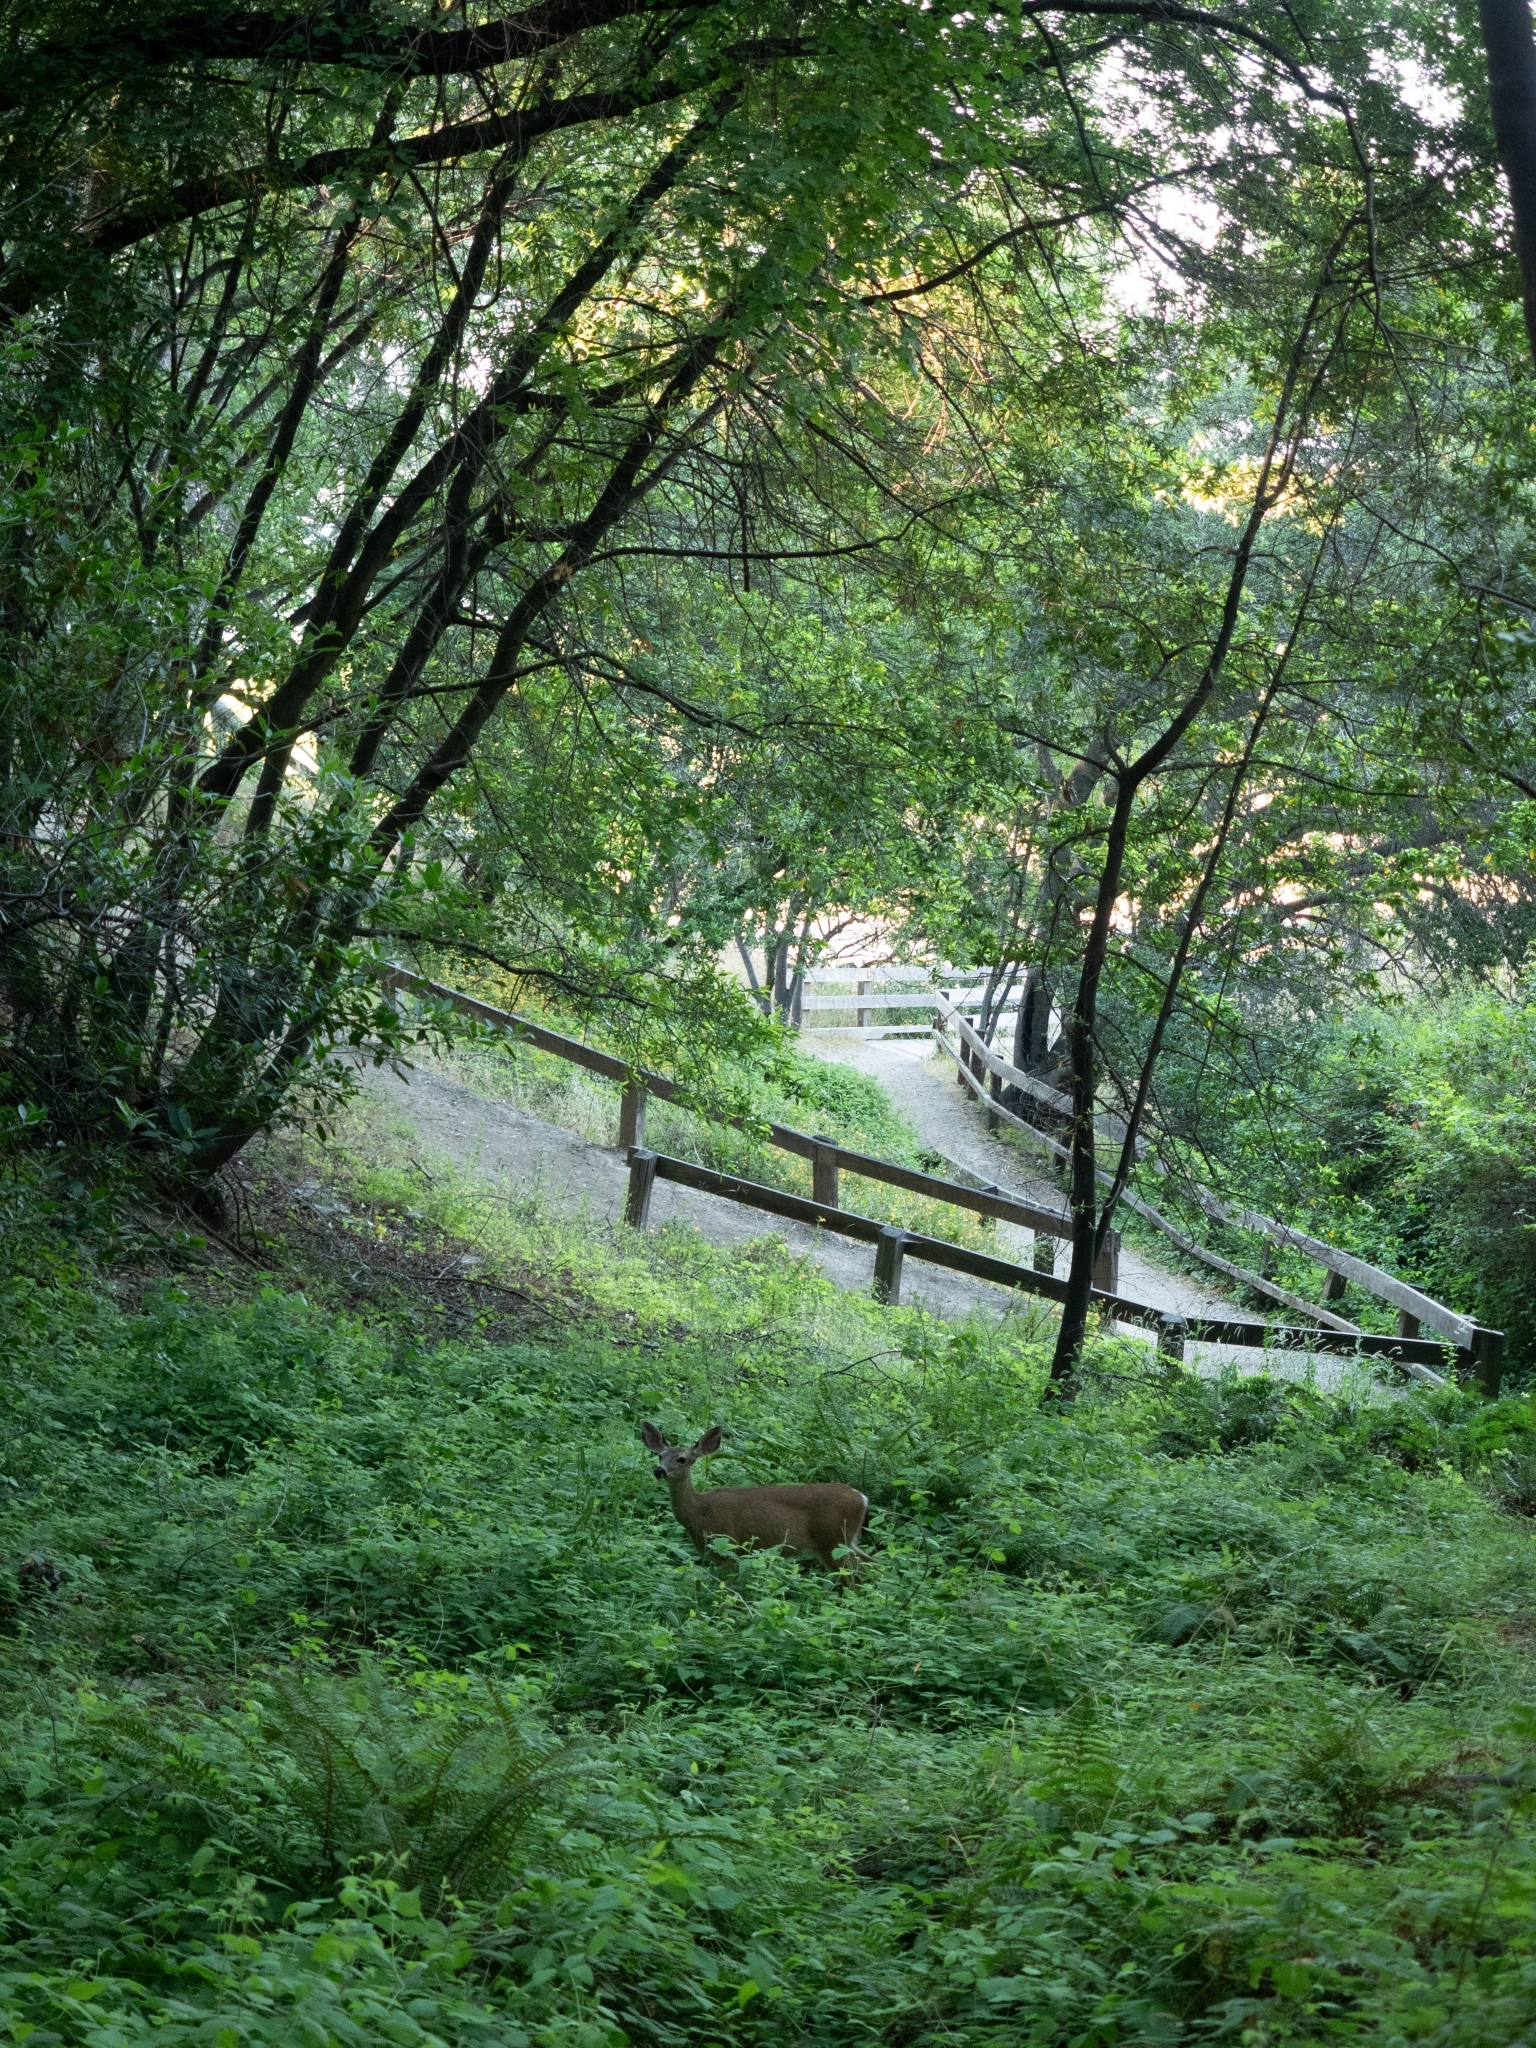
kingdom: Animalia
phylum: Chordata
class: Mammalia
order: Artiodactyla
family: Cervidae
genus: Odocoileus
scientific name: Odocoileus hemionus
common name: Mule deer
